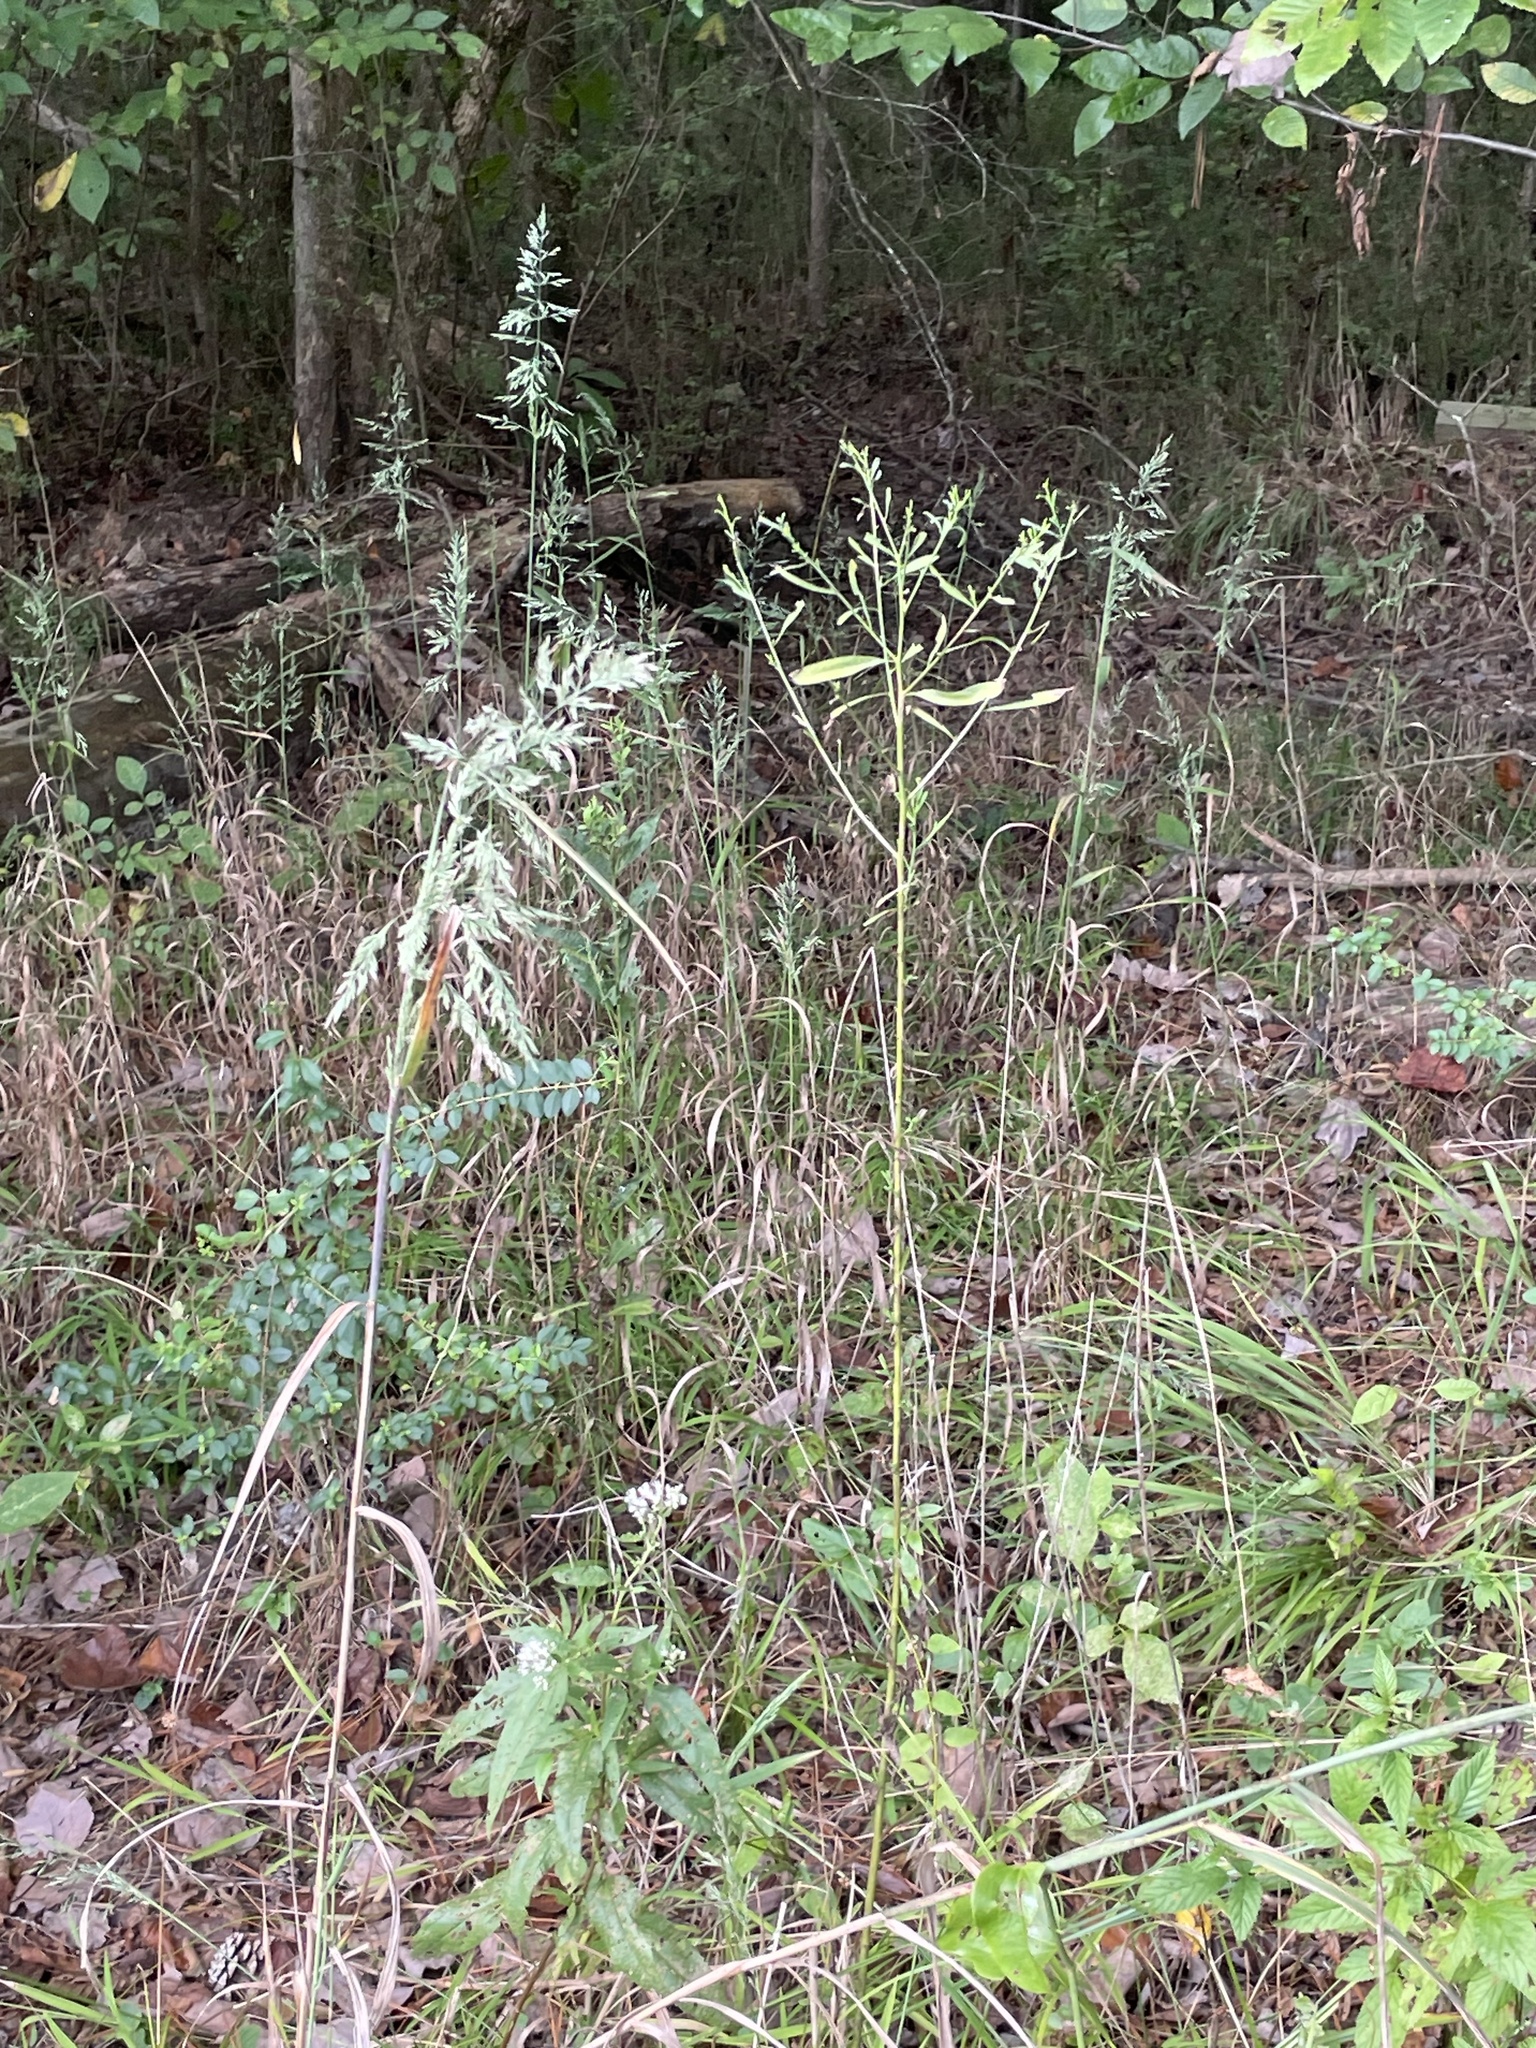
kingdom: Plantae
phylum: Tracheophyta
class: Liliopsida
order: Poales
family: Poaceae
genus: Cinna
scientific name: Cinna arundinacea
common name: Stout woodreed
